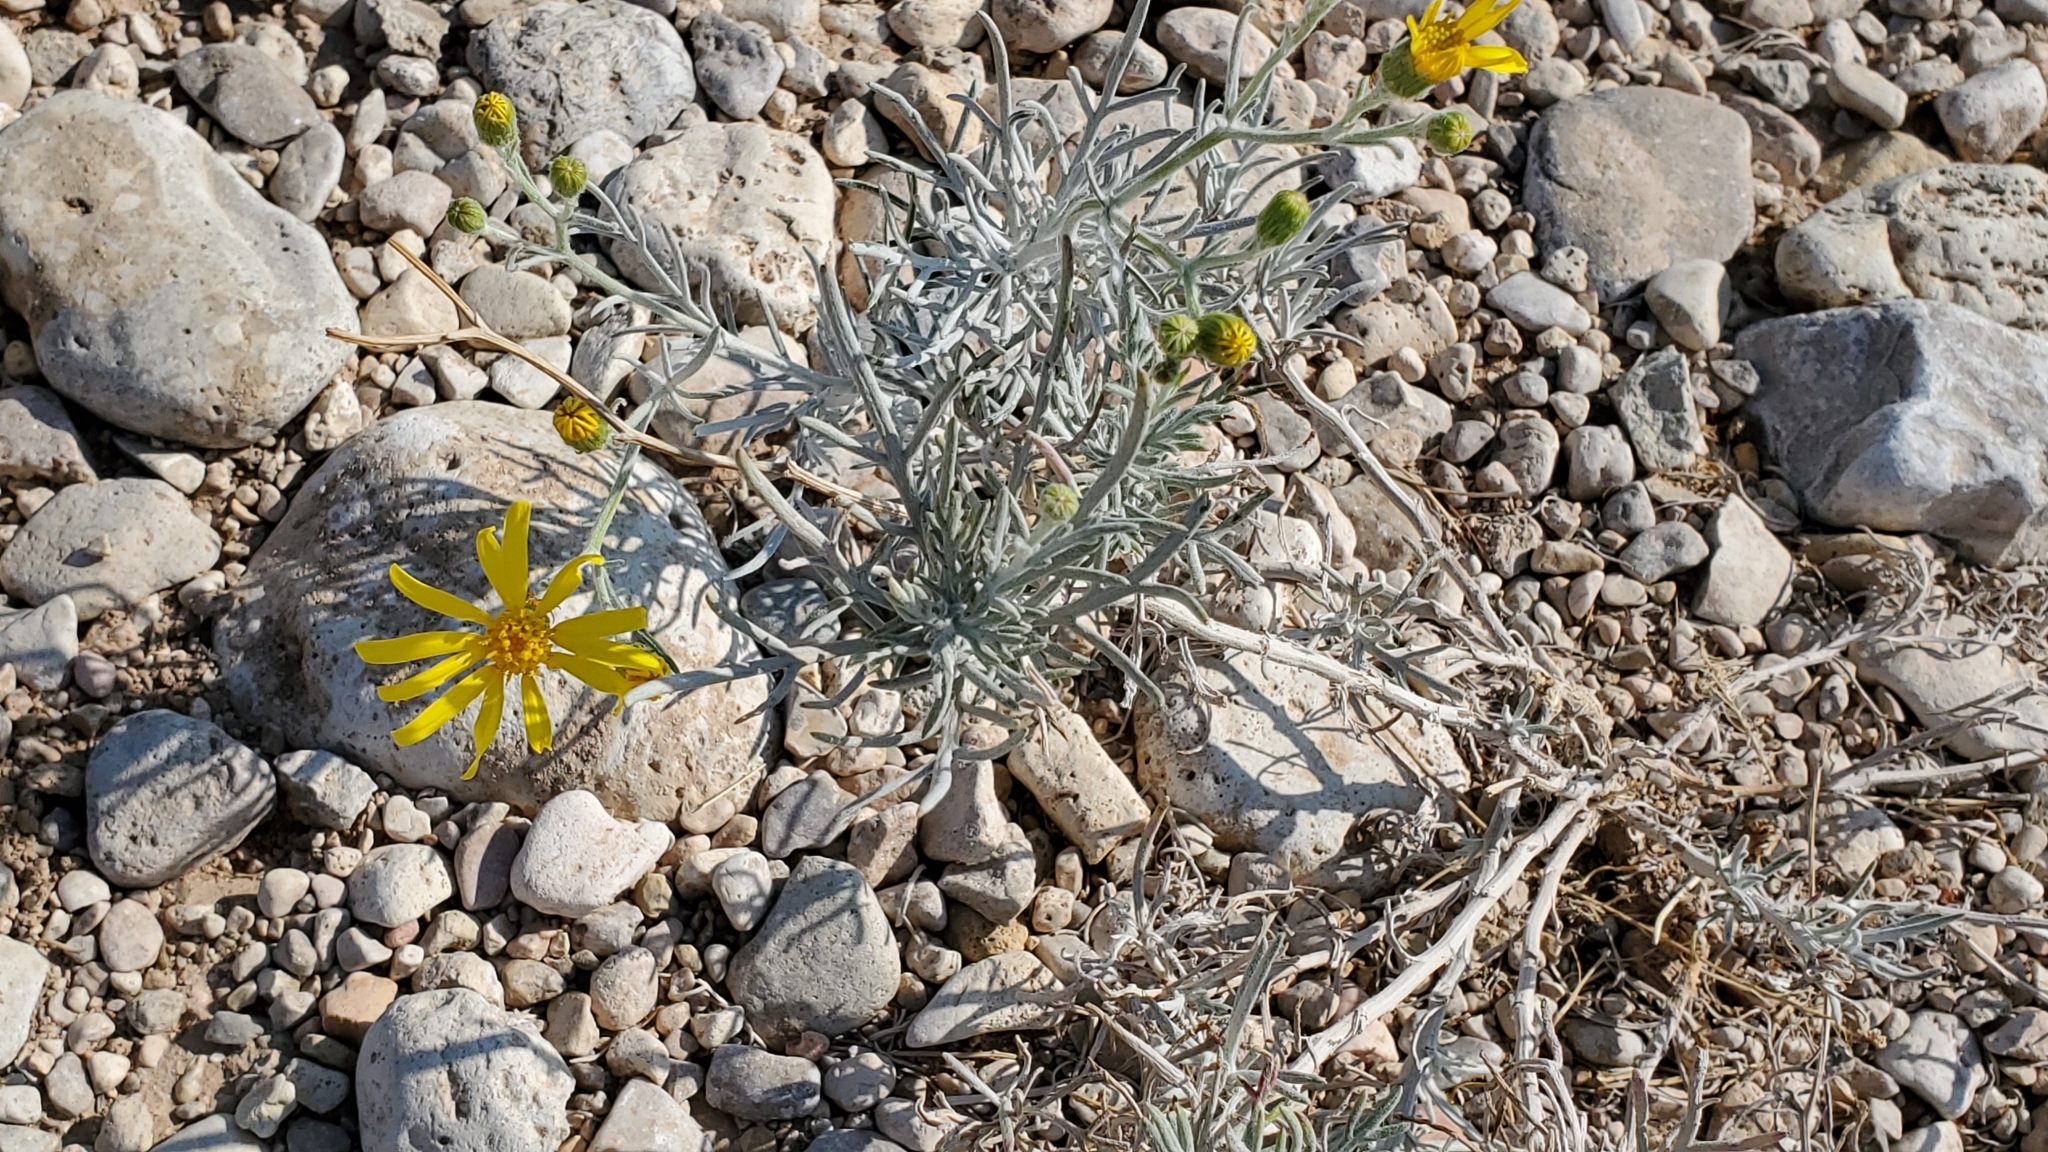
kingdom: Plantae
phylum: Tracheophyta
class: Magnoliopsida
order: Asterales
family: Asteraceae
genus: Senecio
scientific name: Senecio flaccidus
